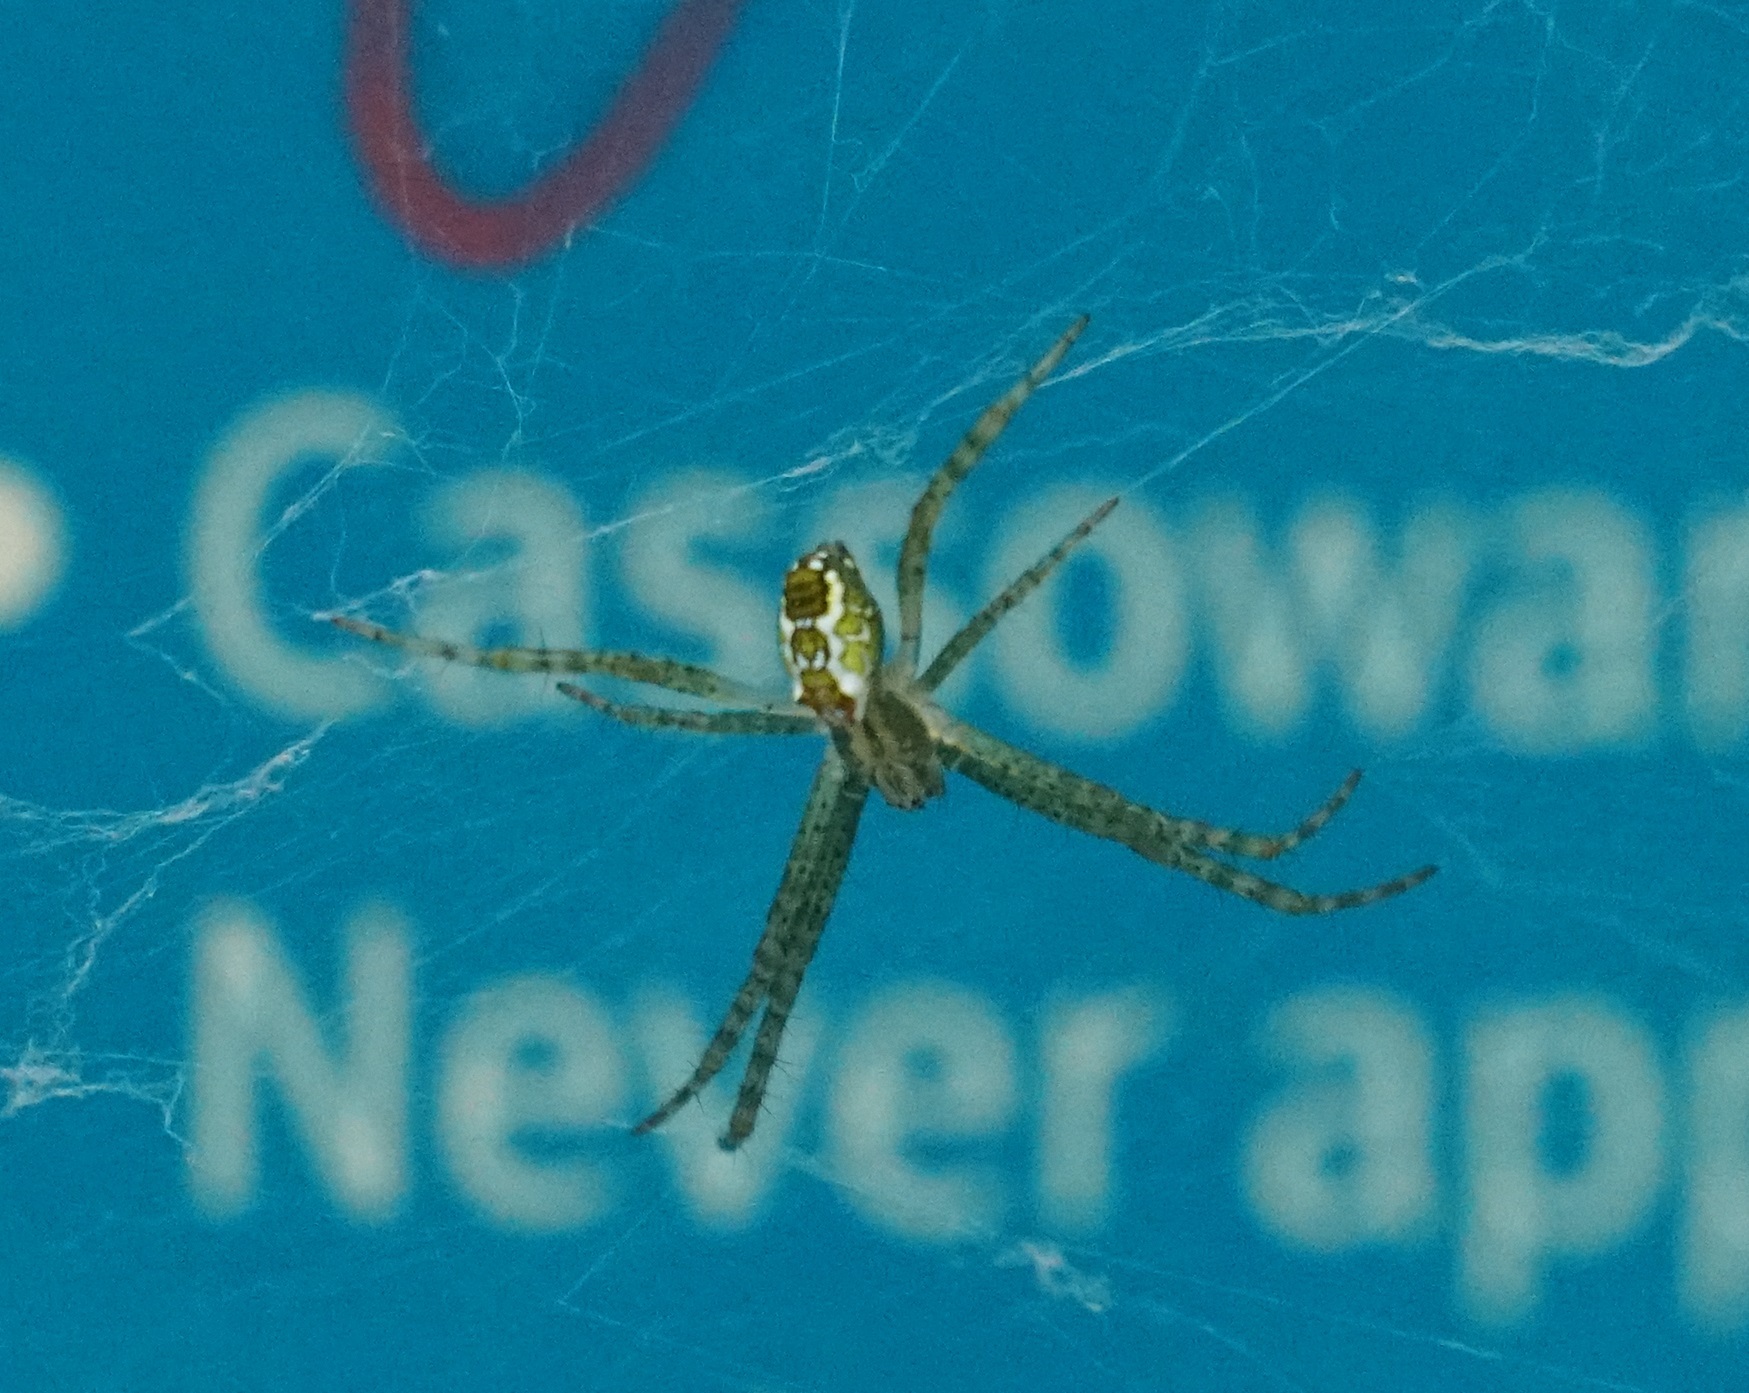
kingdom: Chromista
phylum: Ochrophyta
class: Dictyochophyceae
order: Pedinellales
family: Cyrtophoraceae
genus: Cyrtophora
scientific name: Cyrtophora moluccensis
